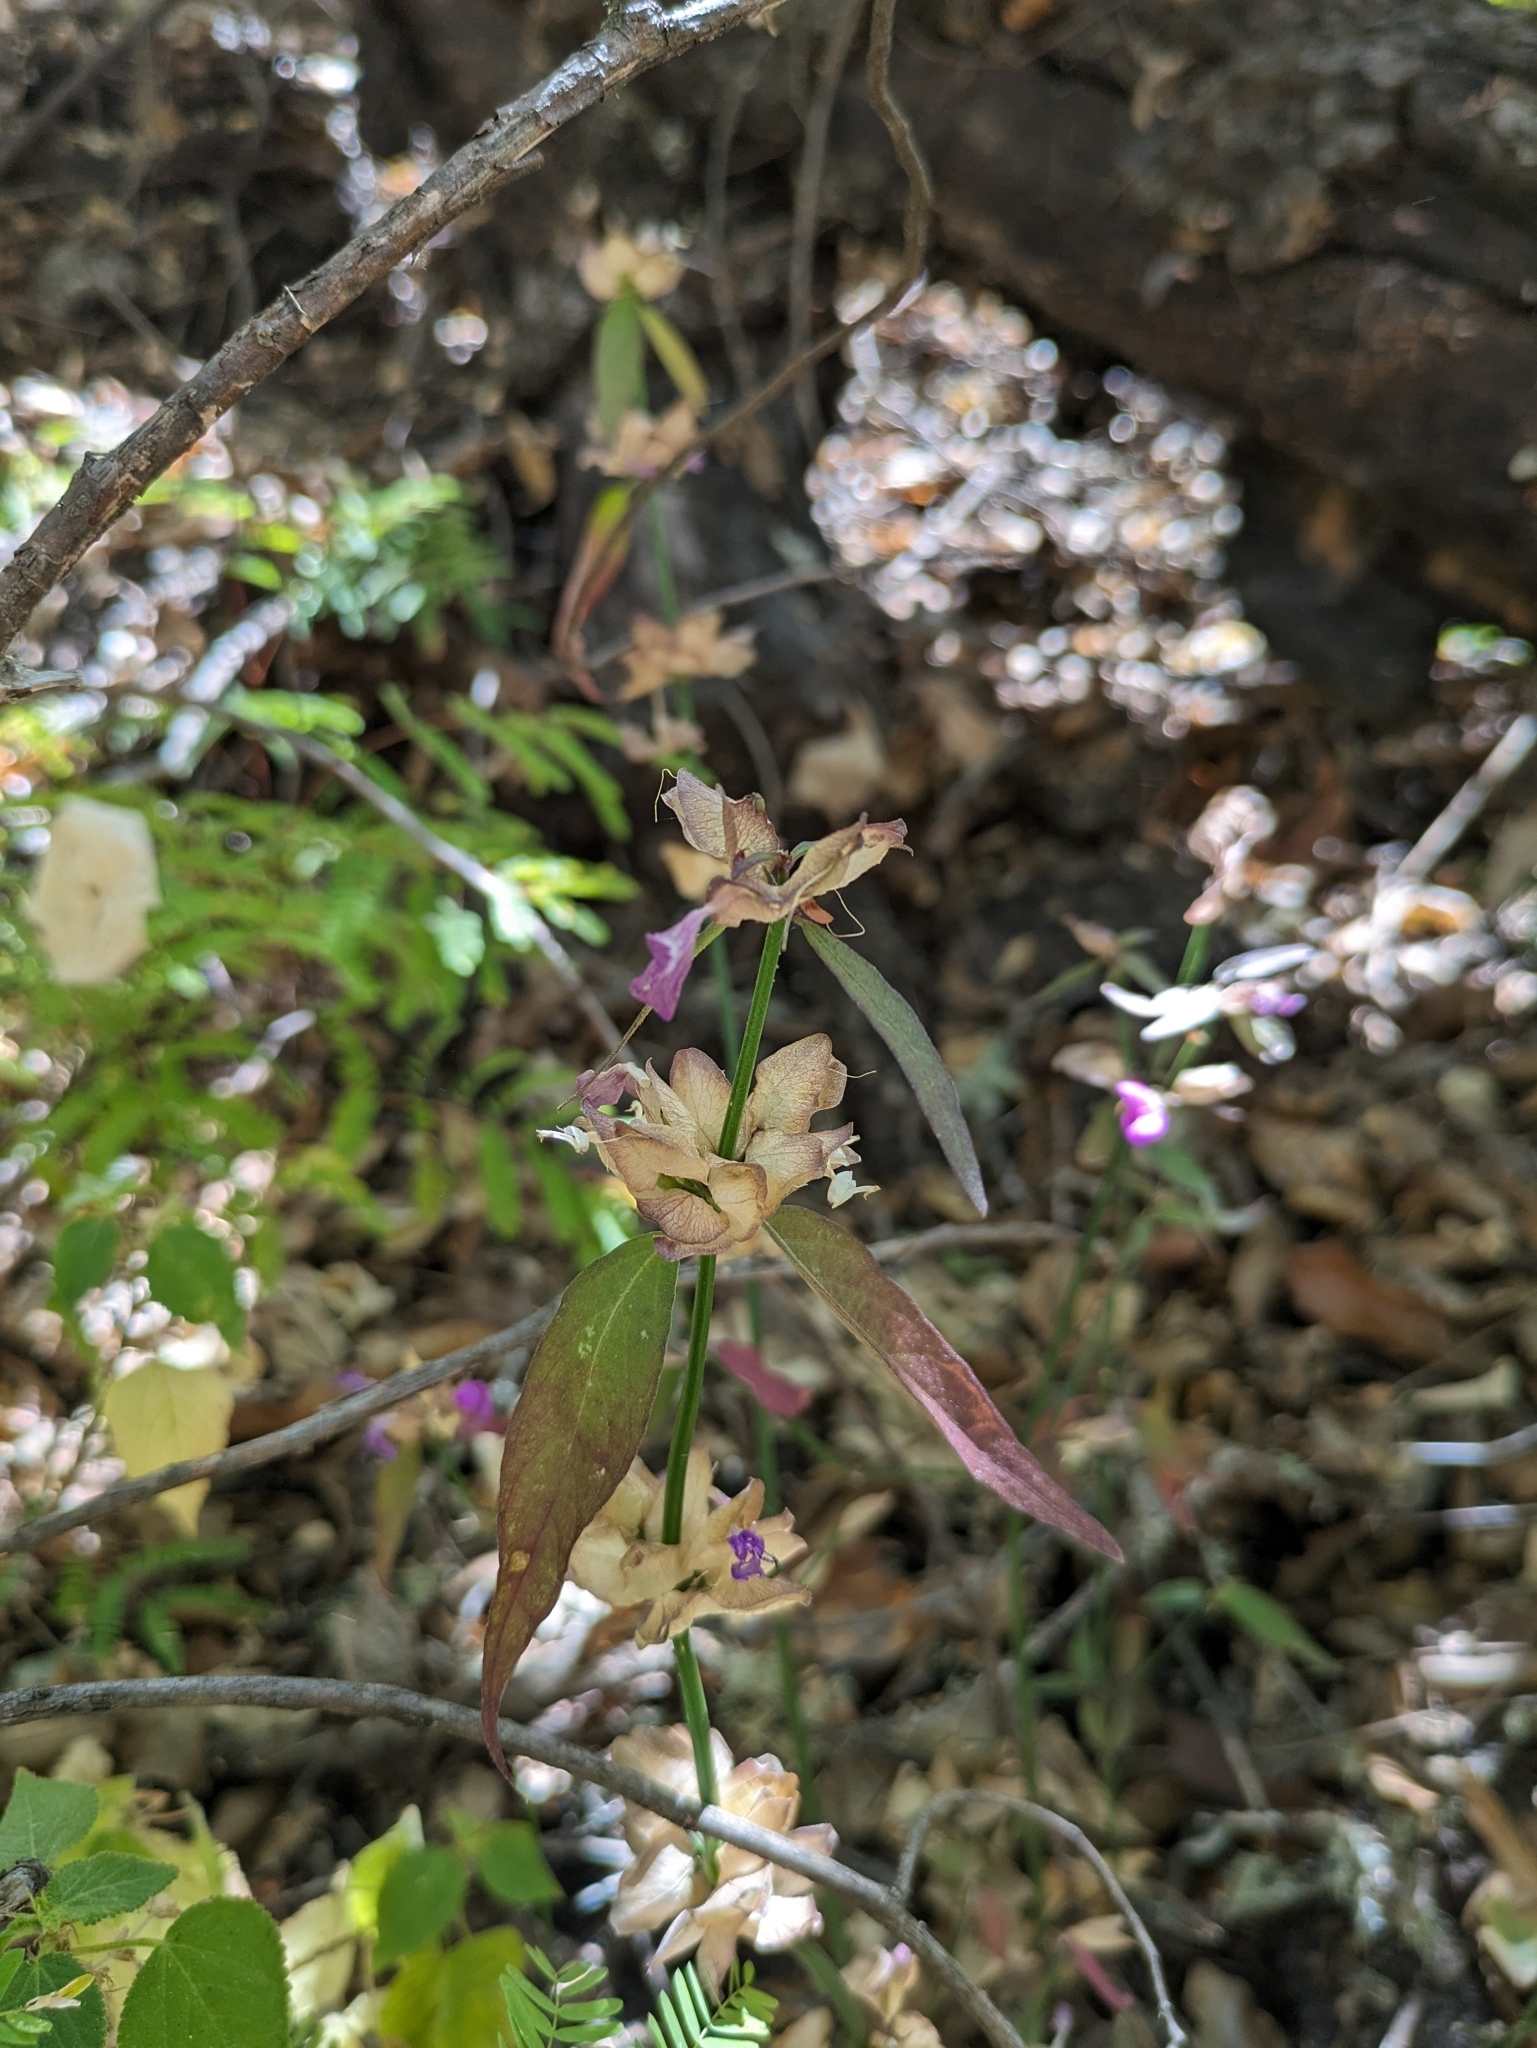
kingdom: Plantae
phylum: Tracheophyta
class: Magnoliopsida
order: Lamiales
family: Acanthaceae
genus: Dicliptera
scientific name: Dicliptera resupinata
